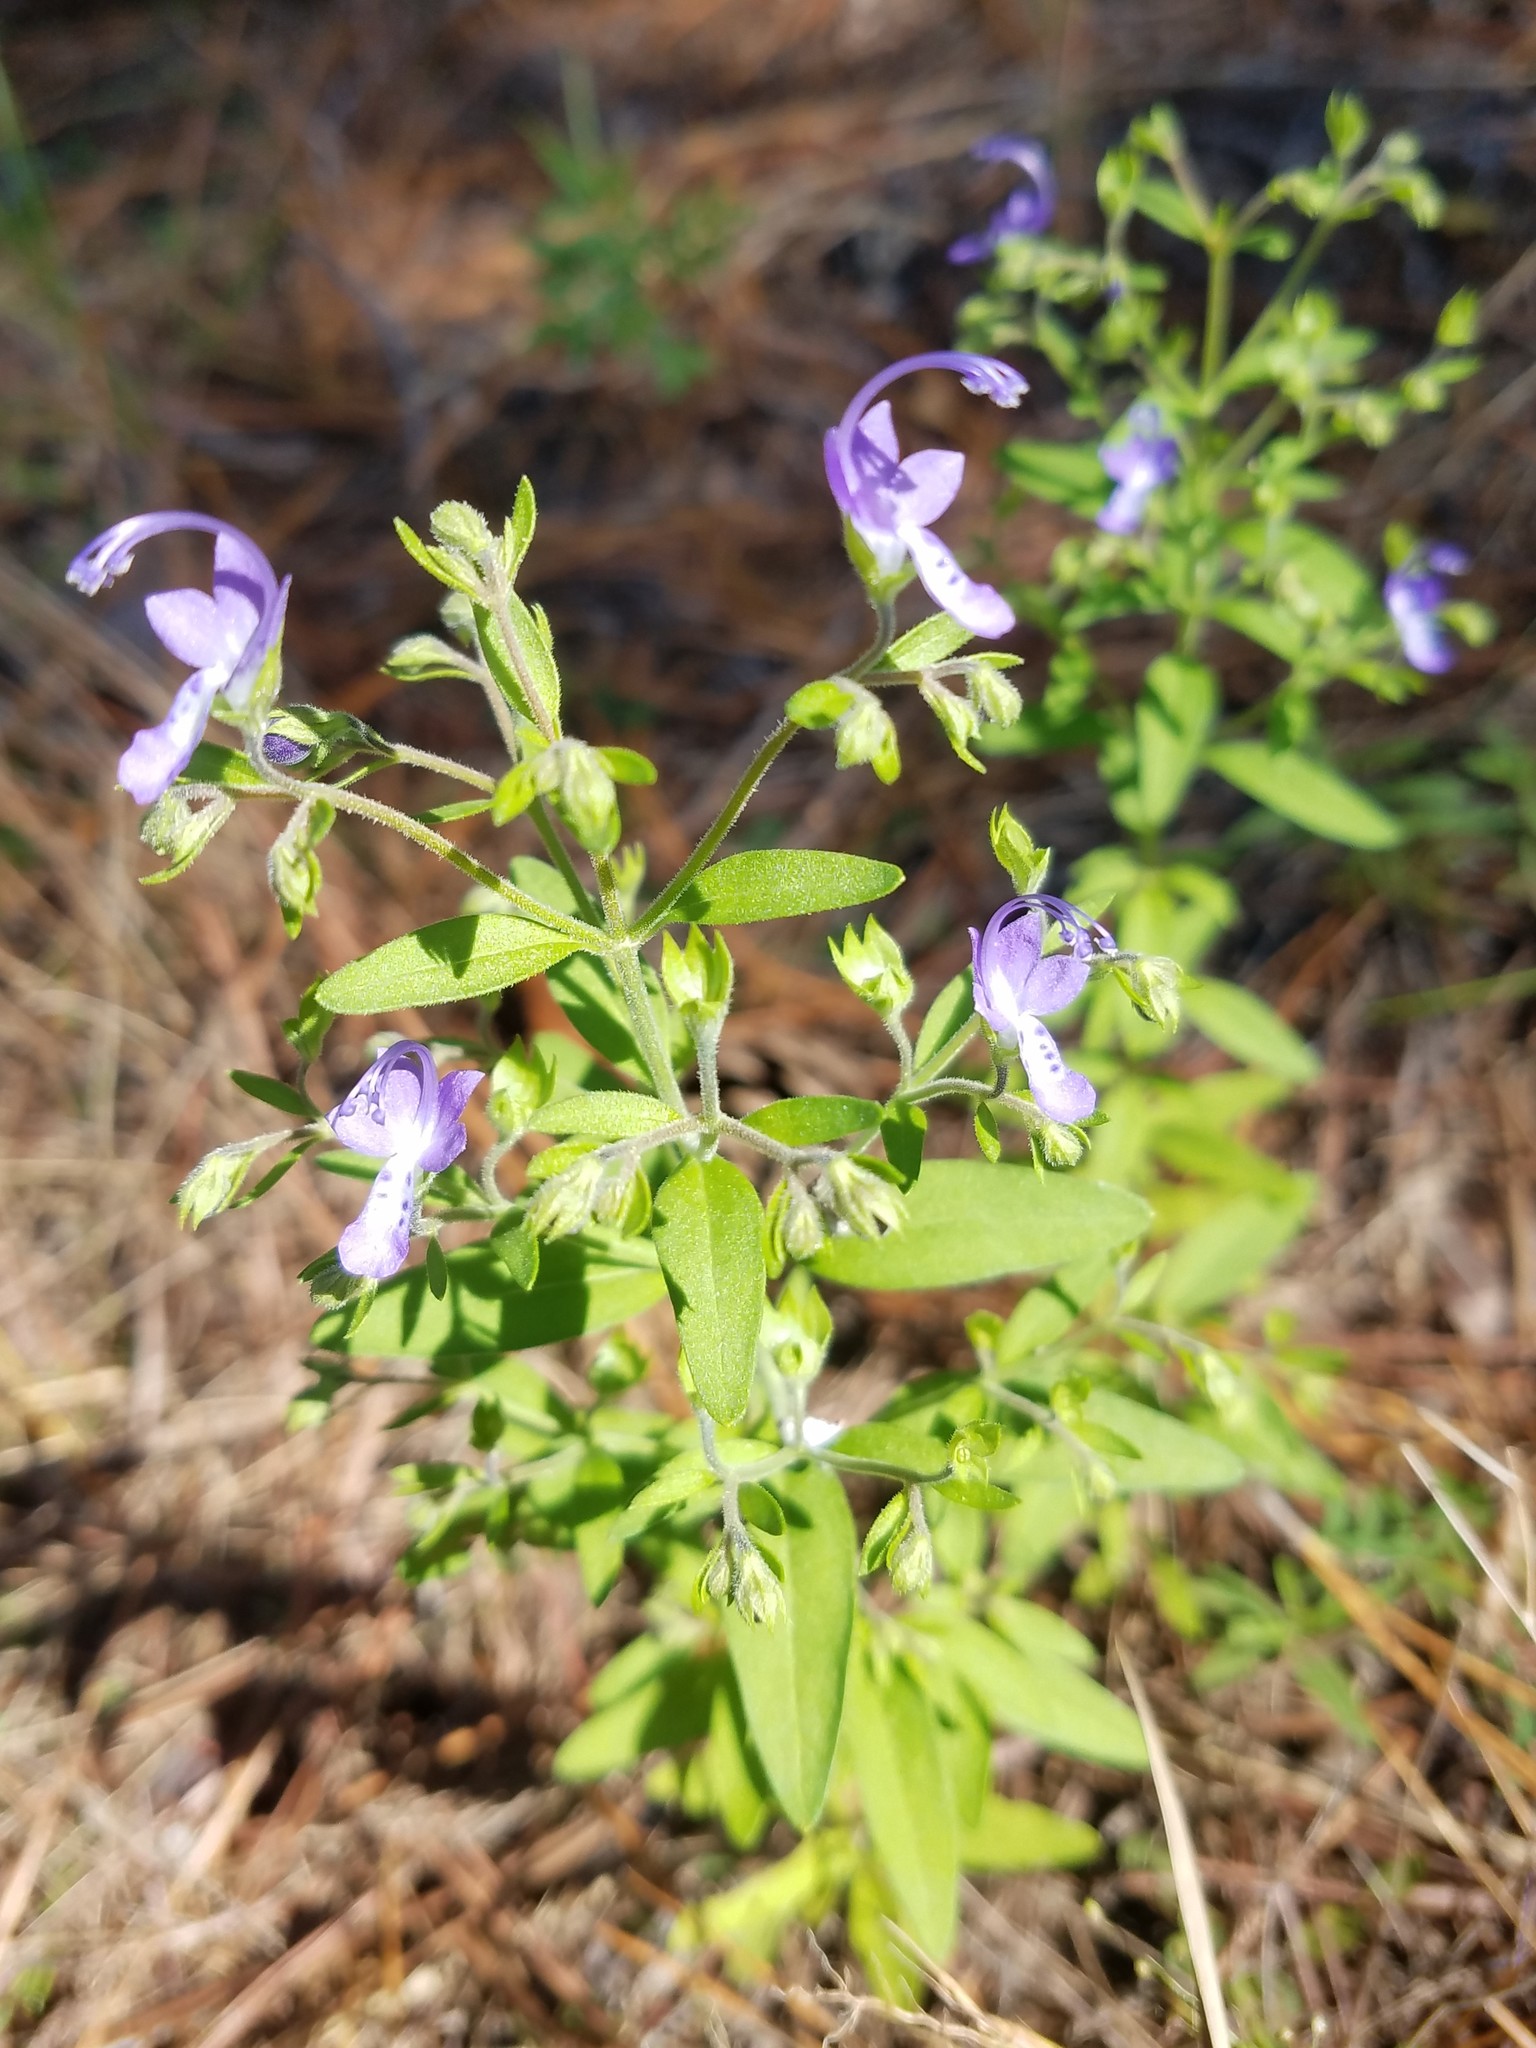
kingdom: Plantae
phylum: Tracheophyta
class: Magnoliopsida
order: Lamiales
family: Lamiaceae
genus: Trichostema
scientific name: Trichostema dichotomum
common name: Bastard pennyroyal
